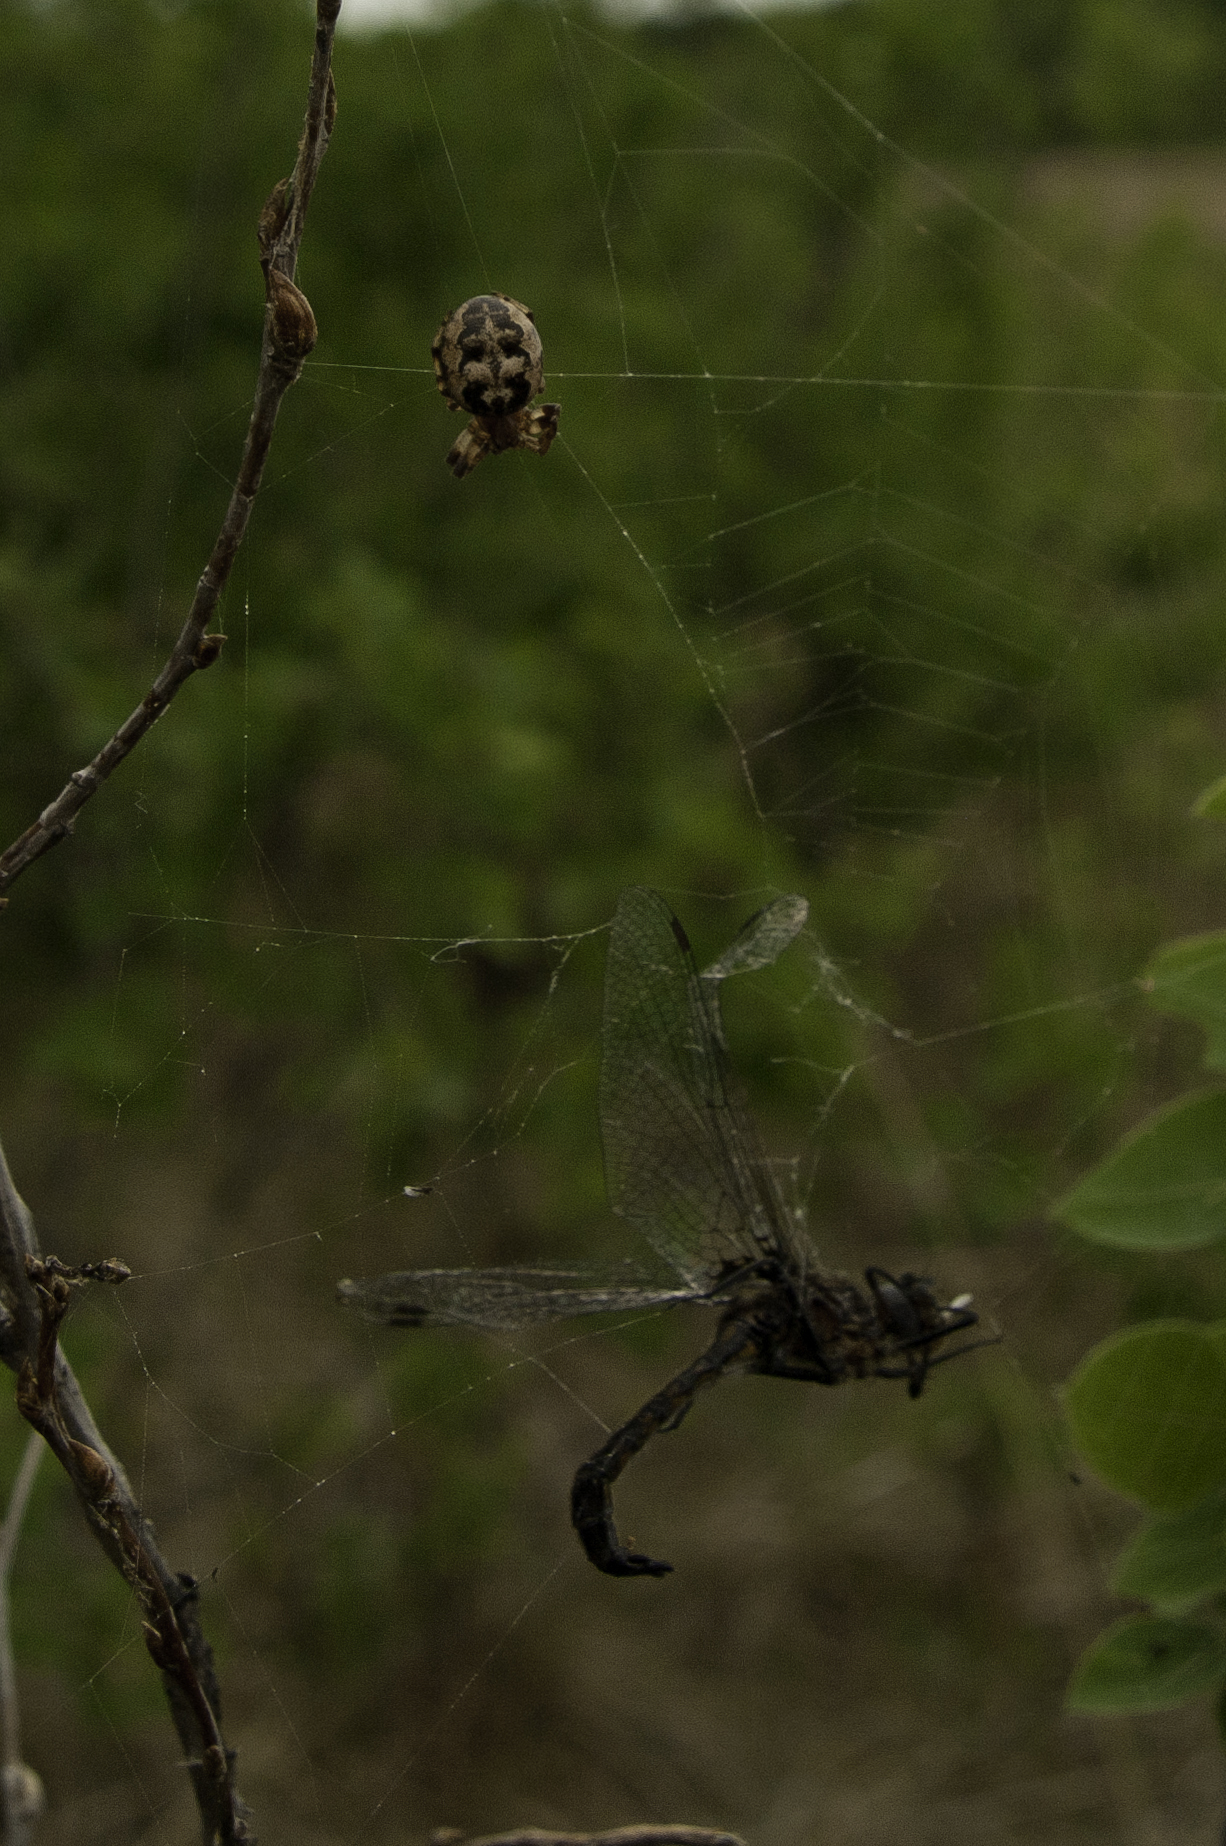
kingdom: Animalia
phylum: Arthropoda
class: Arachnida
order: Araneae
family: Araneidae
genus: Larinioides
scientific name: Larinioides cornutus
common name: Furrow orbweaver
